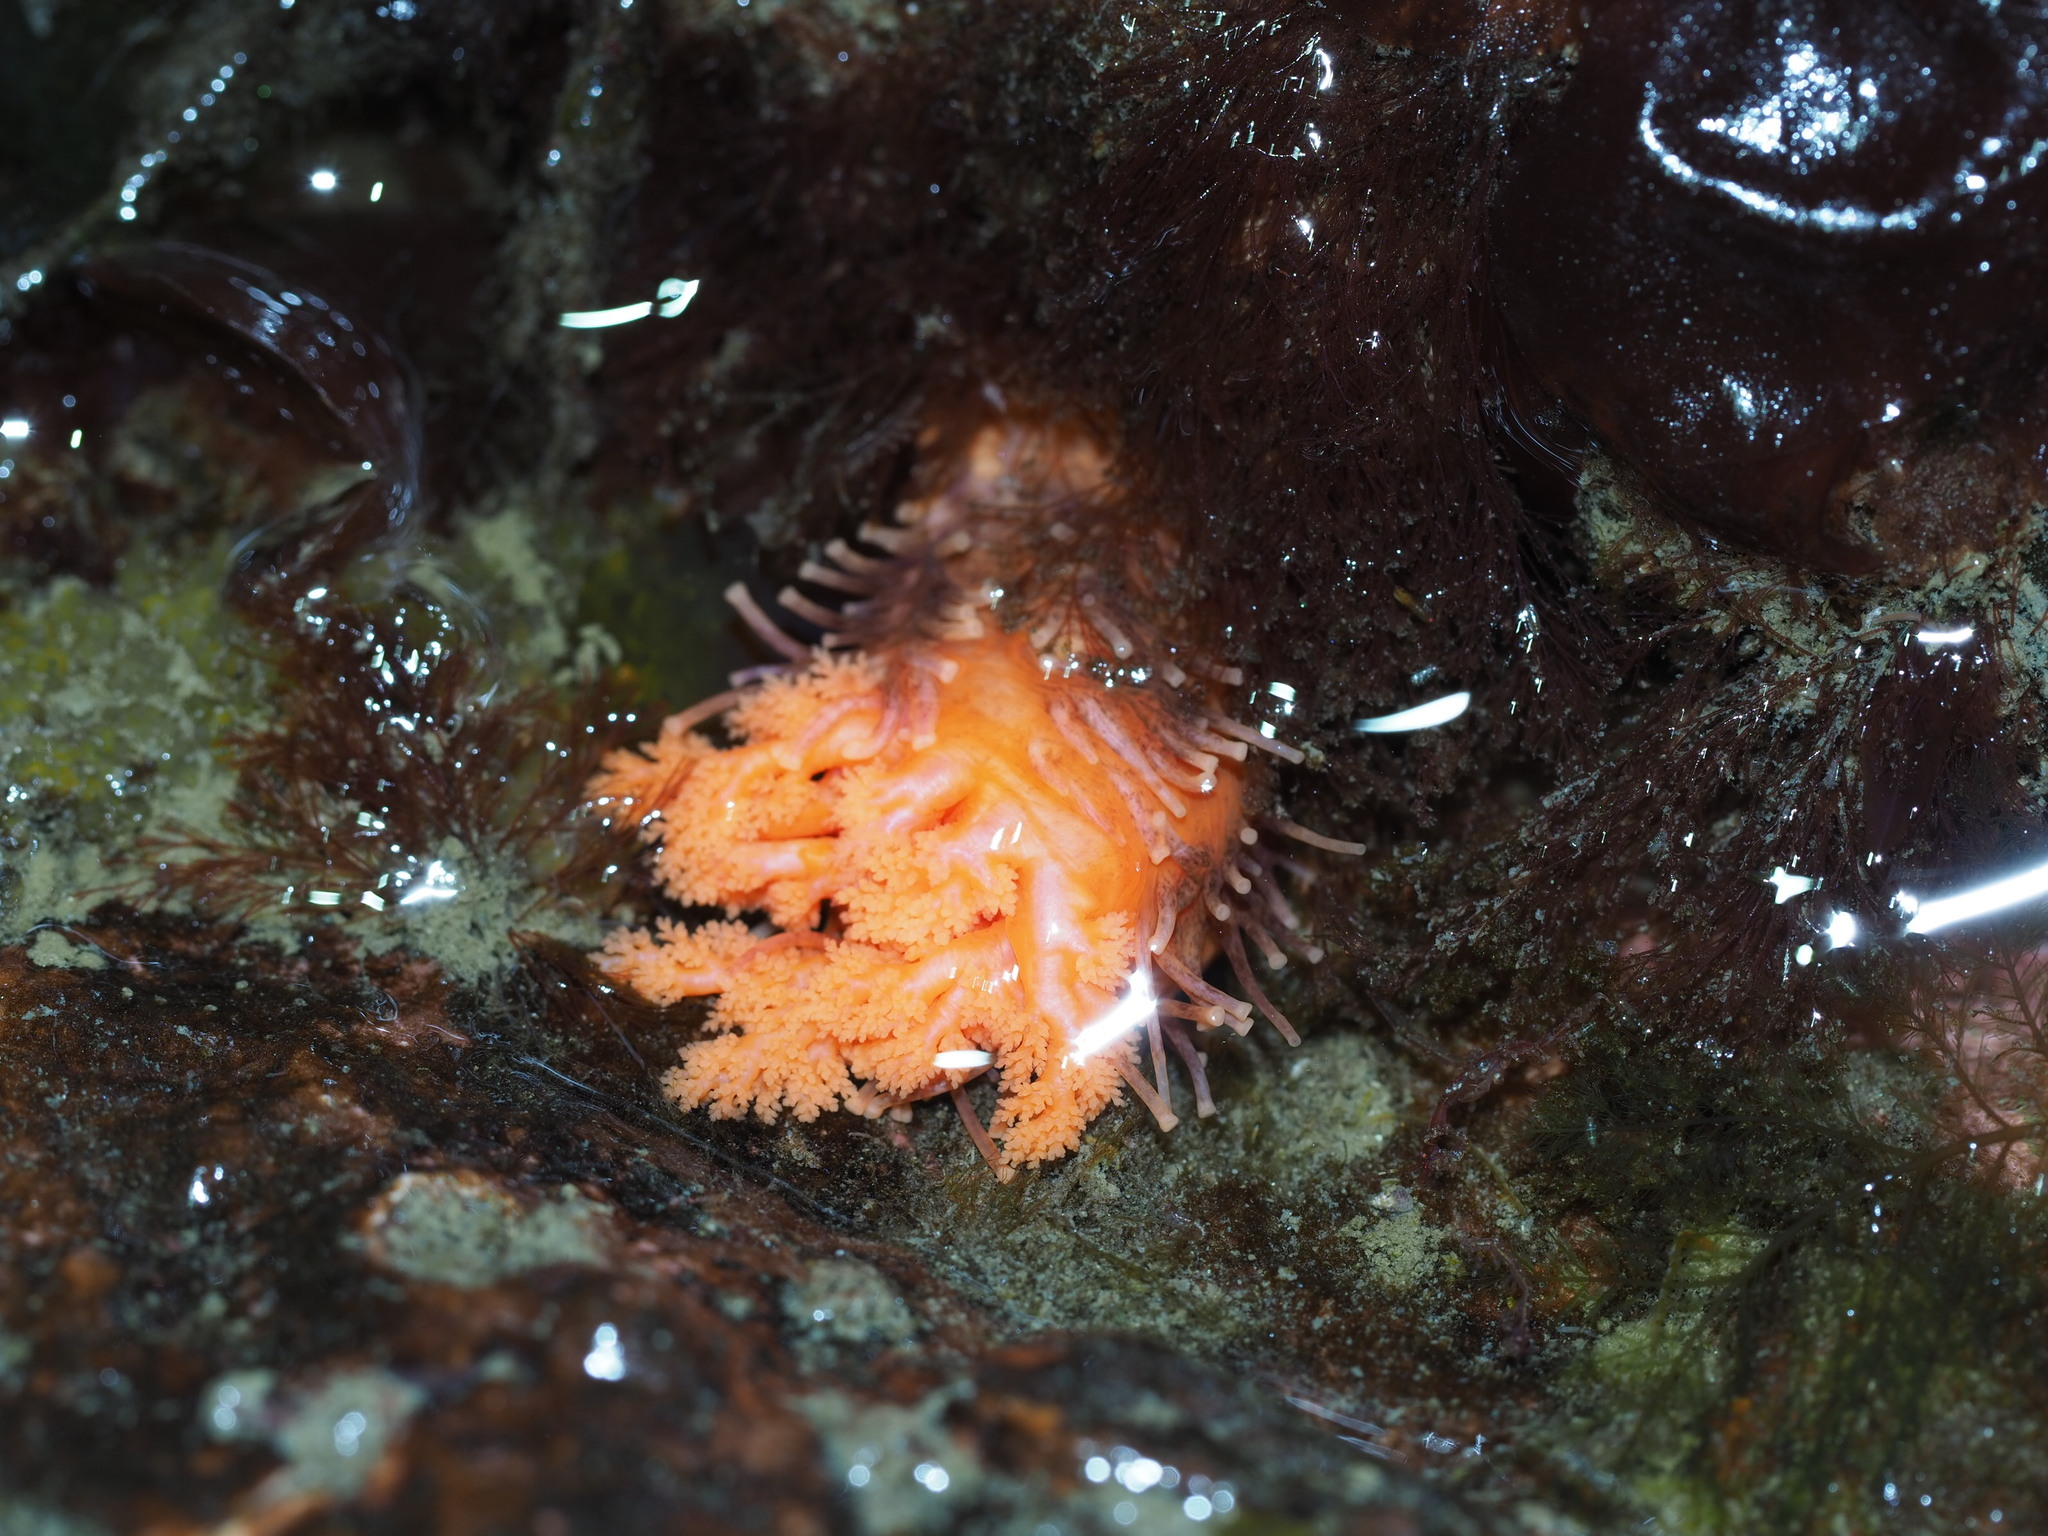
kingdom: Animalia
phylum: Echinodermata
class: Holothuroidea
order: Dendrochirotida
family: Cucumariidae
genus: Cucumaria
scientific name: Cucumaria miniata
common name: Orange sea cucumber
